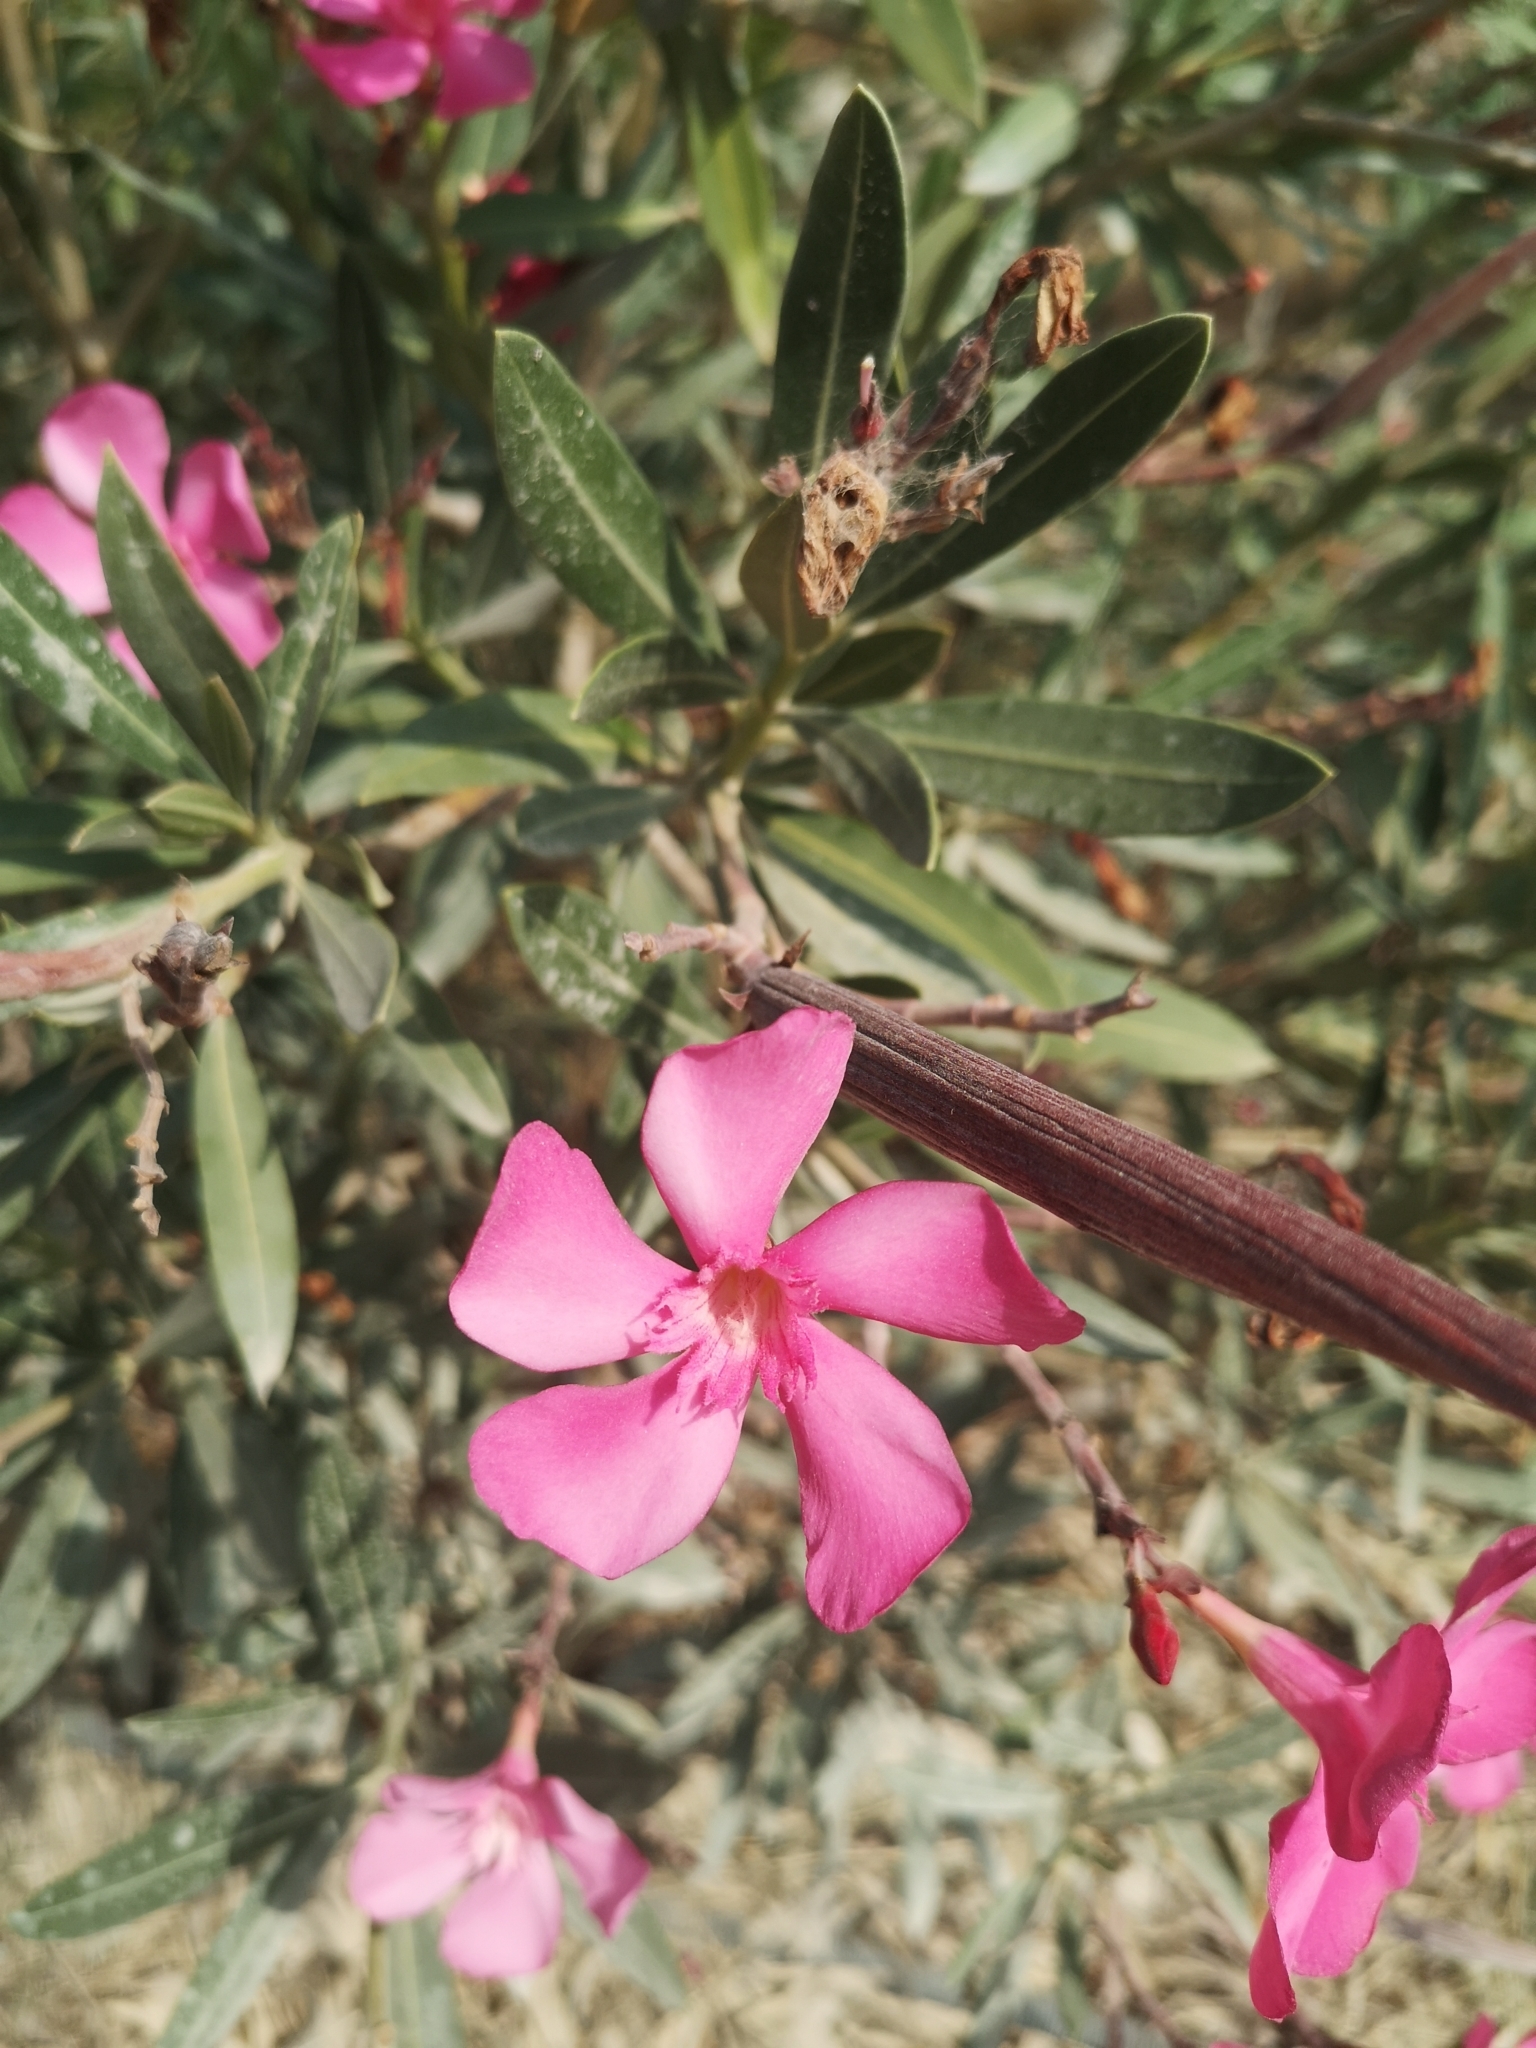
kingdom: Plantae
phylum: Tracheophyta
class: Magnoliopsida
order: Gentianales
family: Apocynaceae
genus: Nerium
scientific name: Nerium oleander
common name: Oleander
